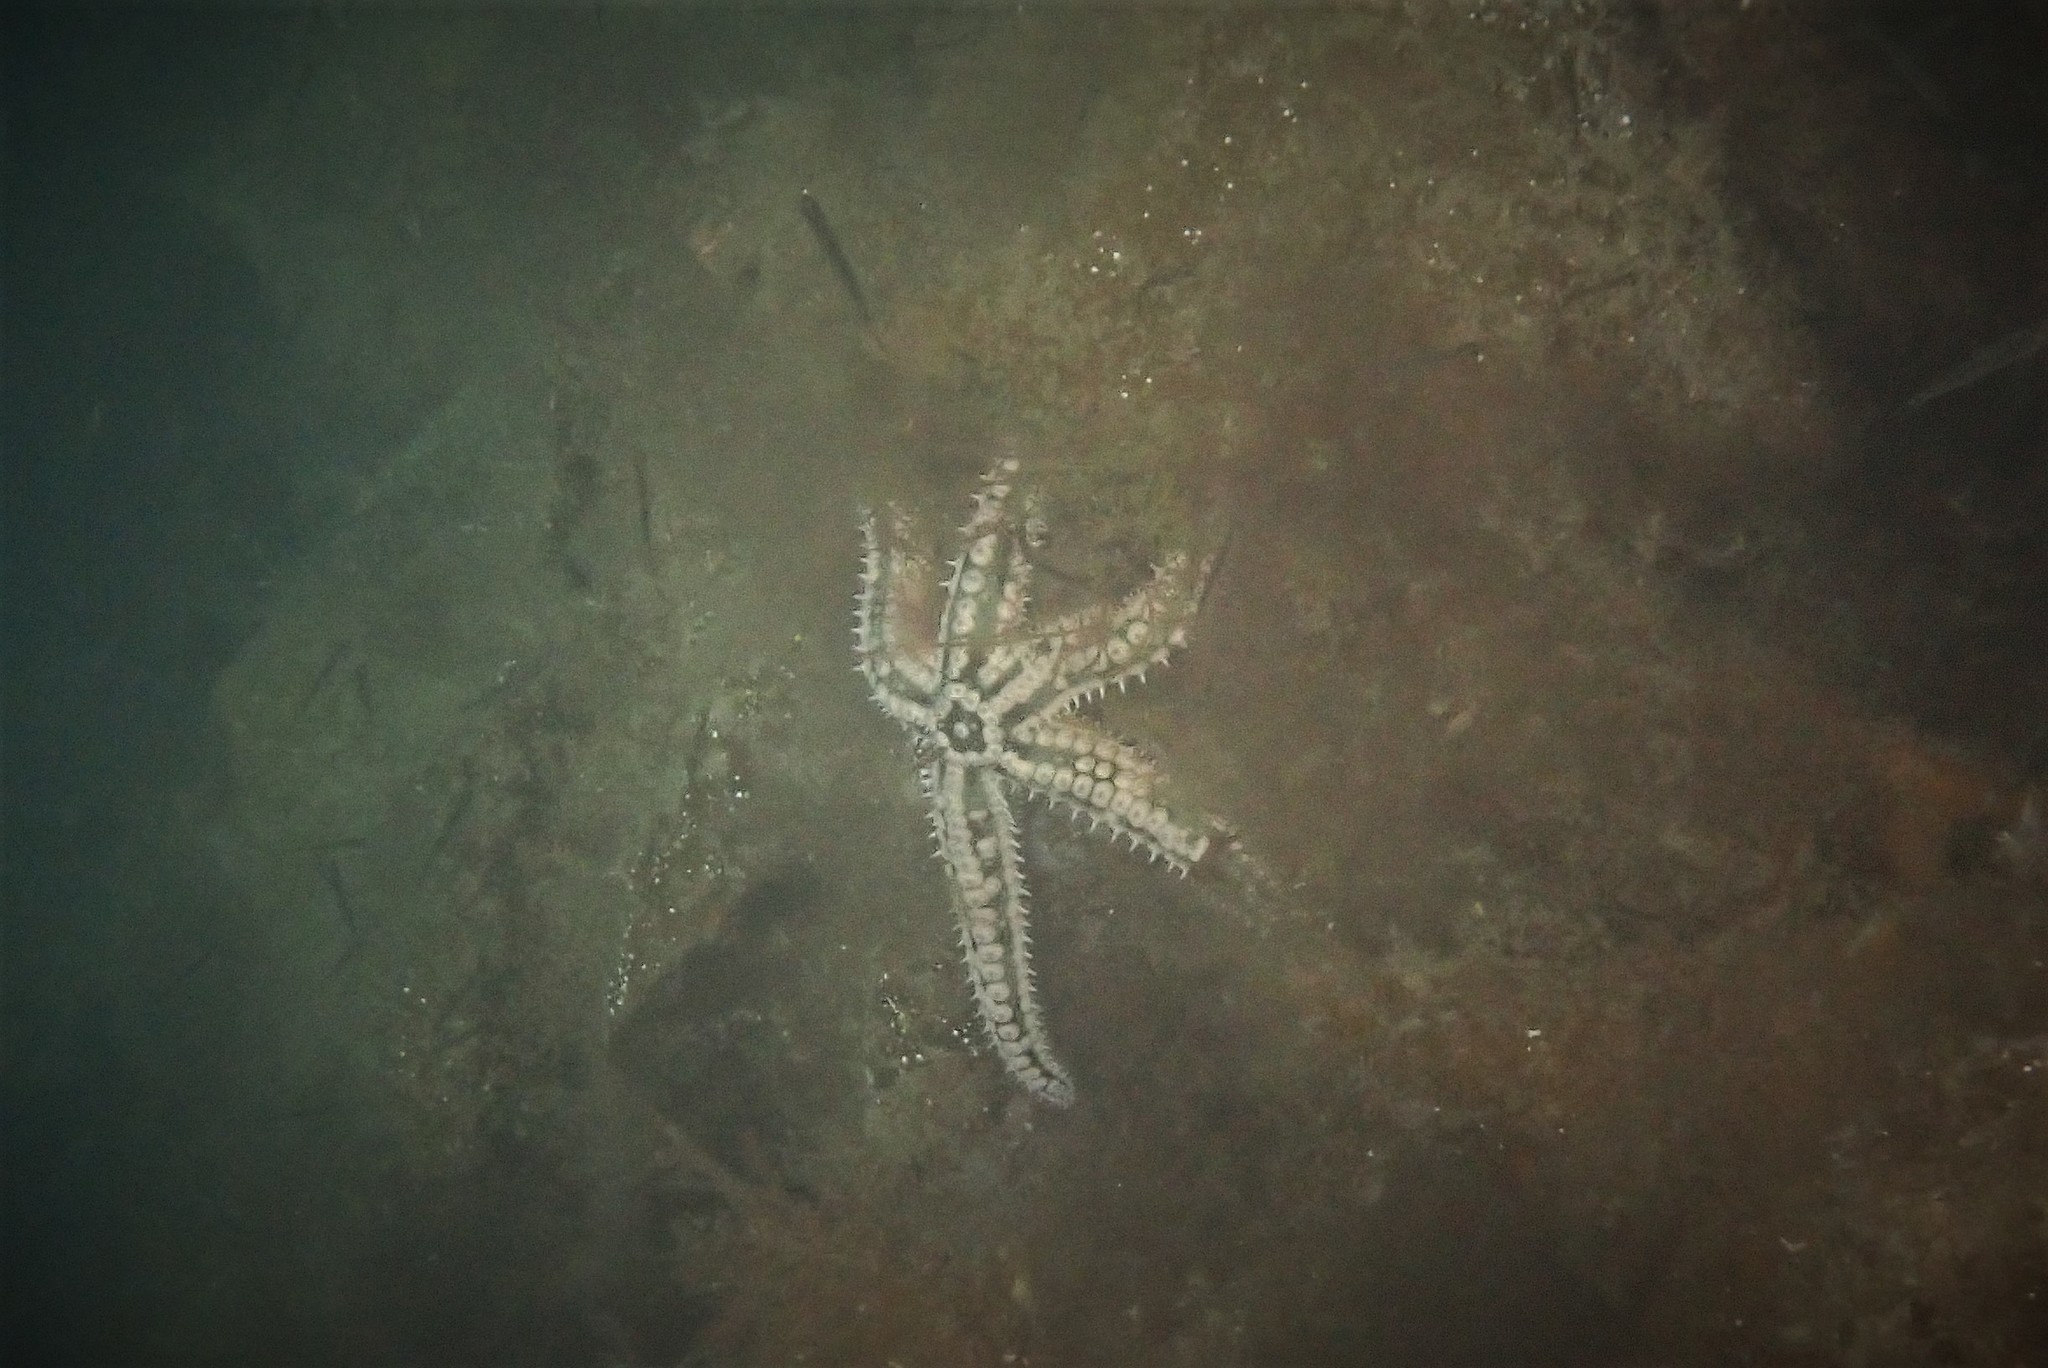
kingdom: Animalia
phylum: Echinodermata
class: Asteroidea
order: Forcipulatida
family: Asteriidae
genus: Marthasterias
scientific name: Marthasterias glacialis
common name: Spiny starfish
